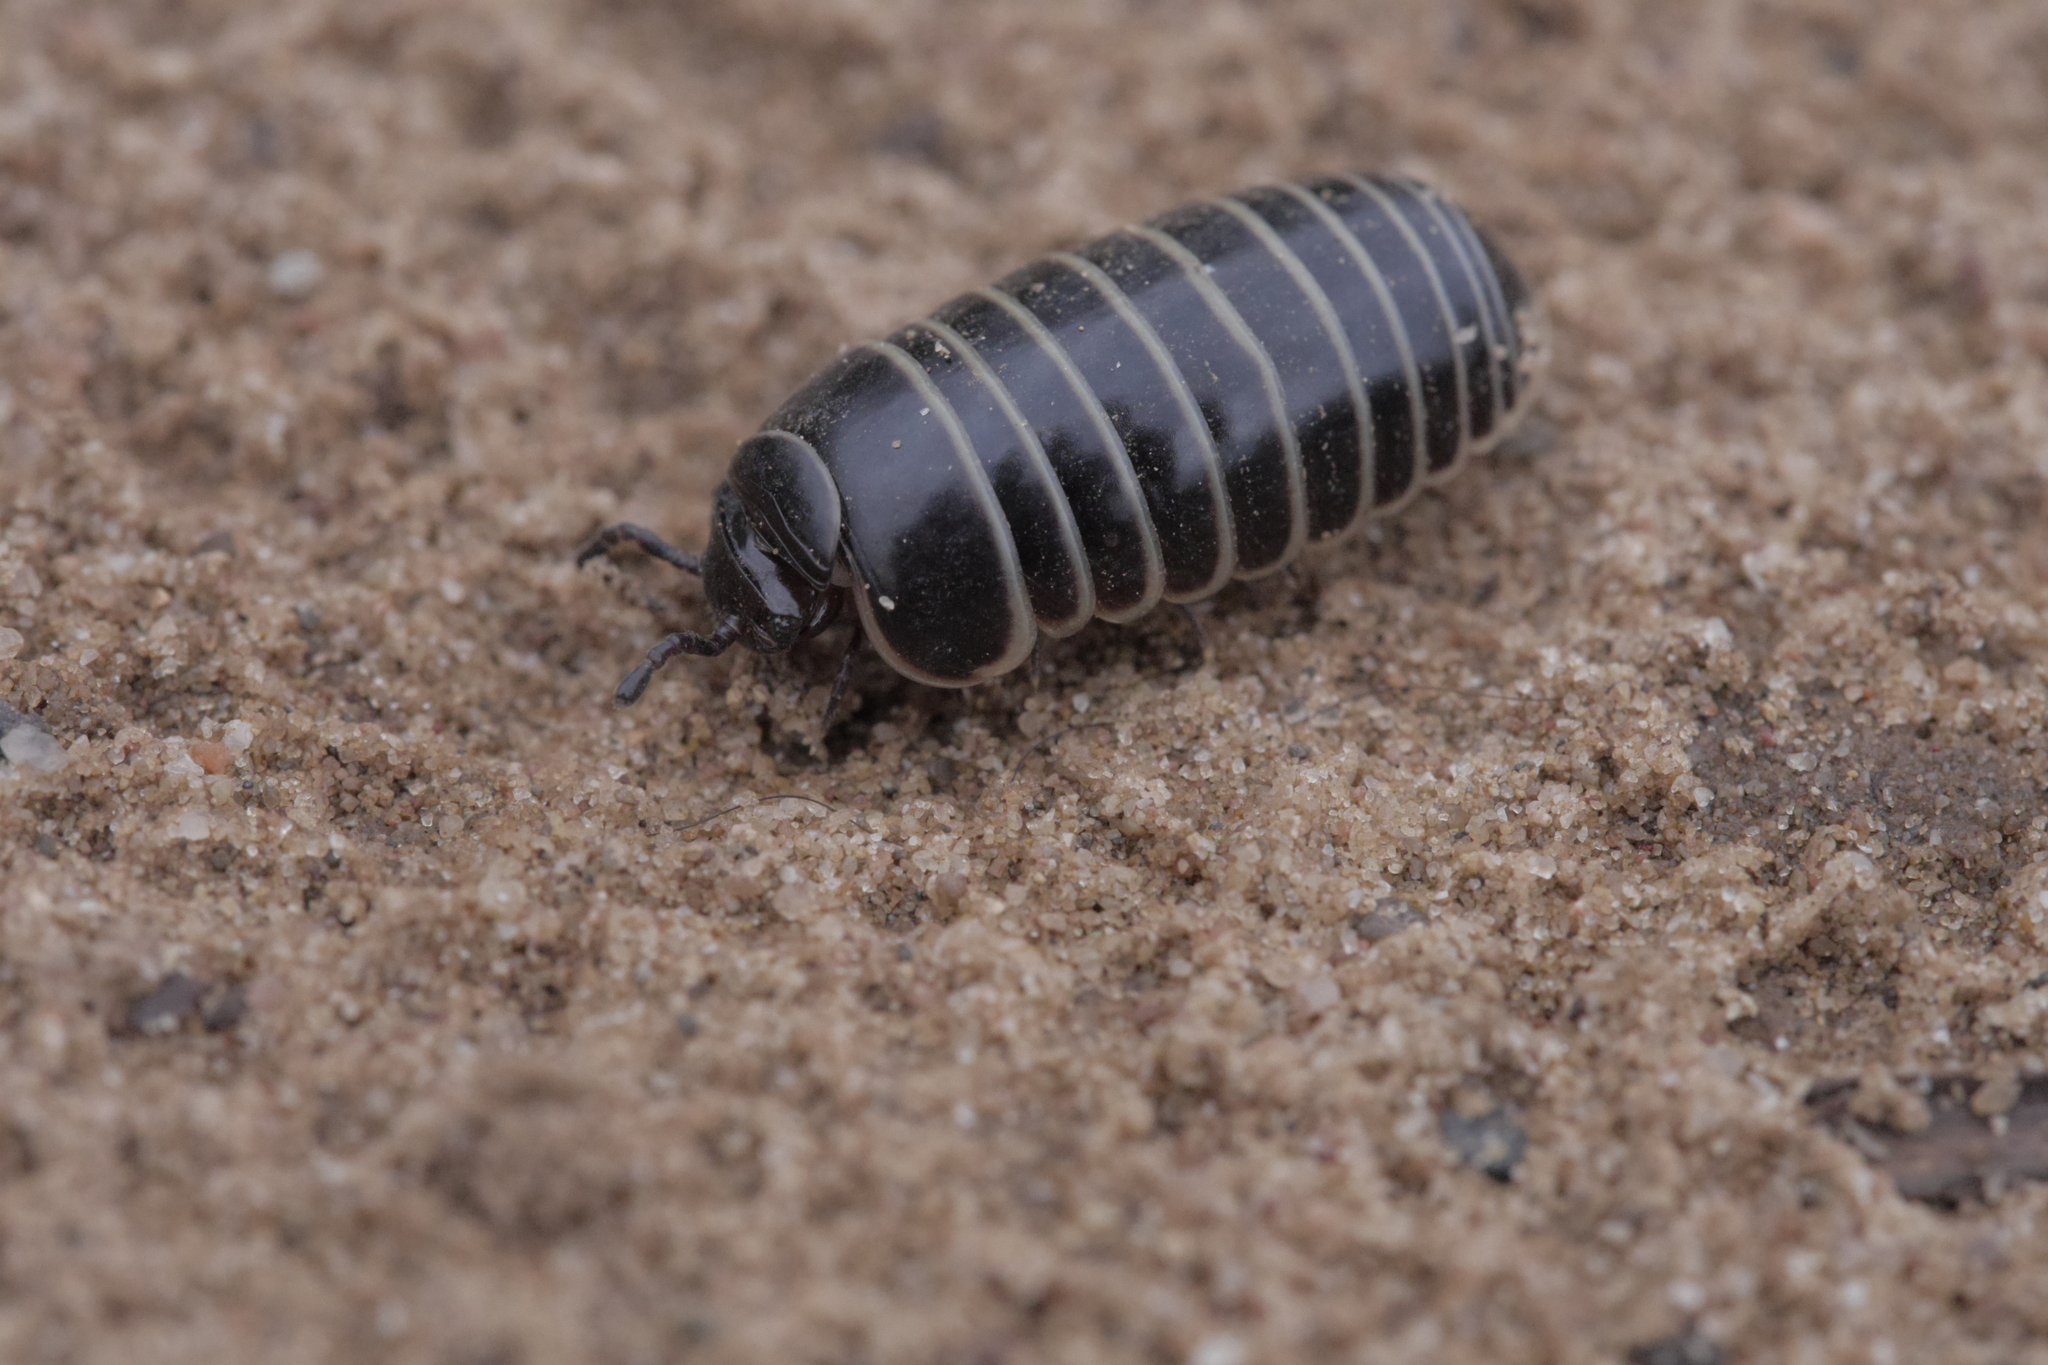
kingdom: Animalia
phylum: Arthropoda
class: Diplopoda
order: Glomerida
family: Glomeridae
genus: Glomeris
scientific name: Glomeris marginata
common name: Bordered pill millipede
